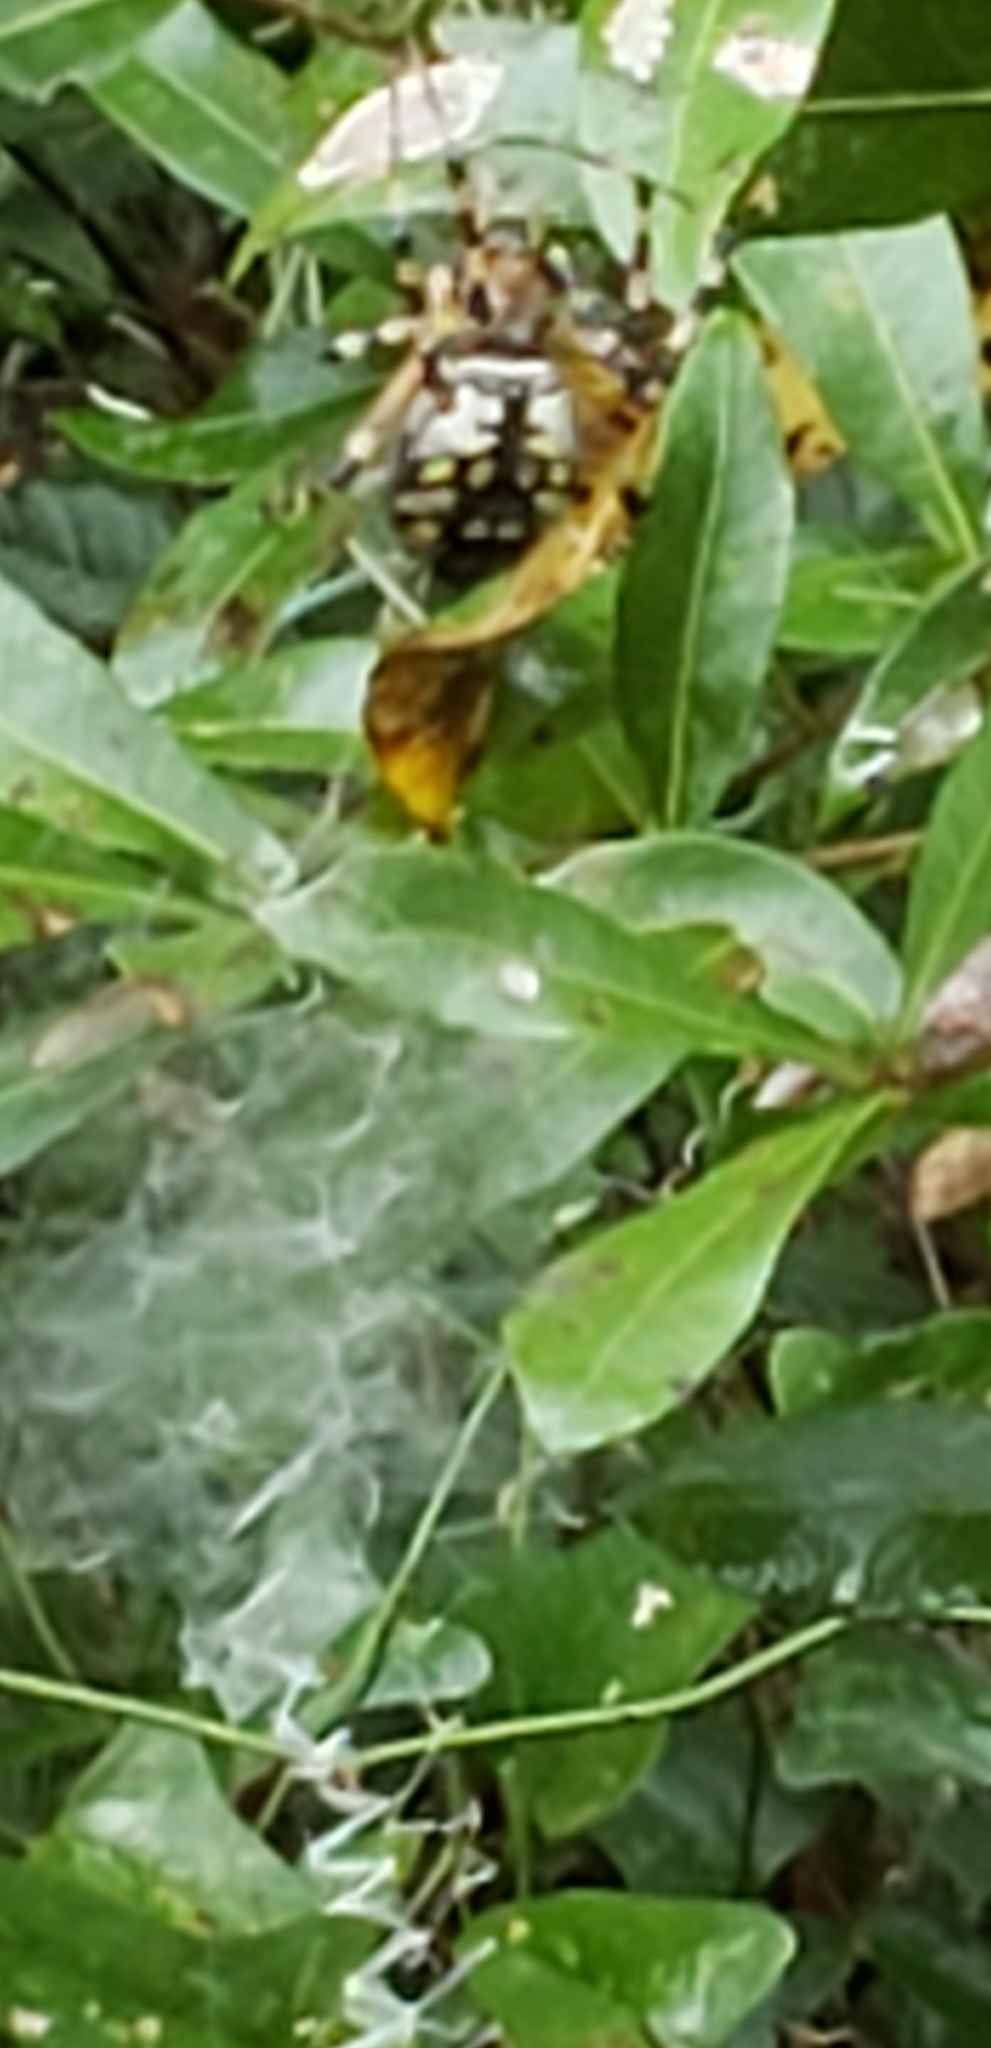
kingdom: Animalia
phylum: Arthropoda
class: Arachnida
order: Araneae
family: Araneidae
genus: Argiope
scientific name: Argiope aurantia
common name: Orb weavers
